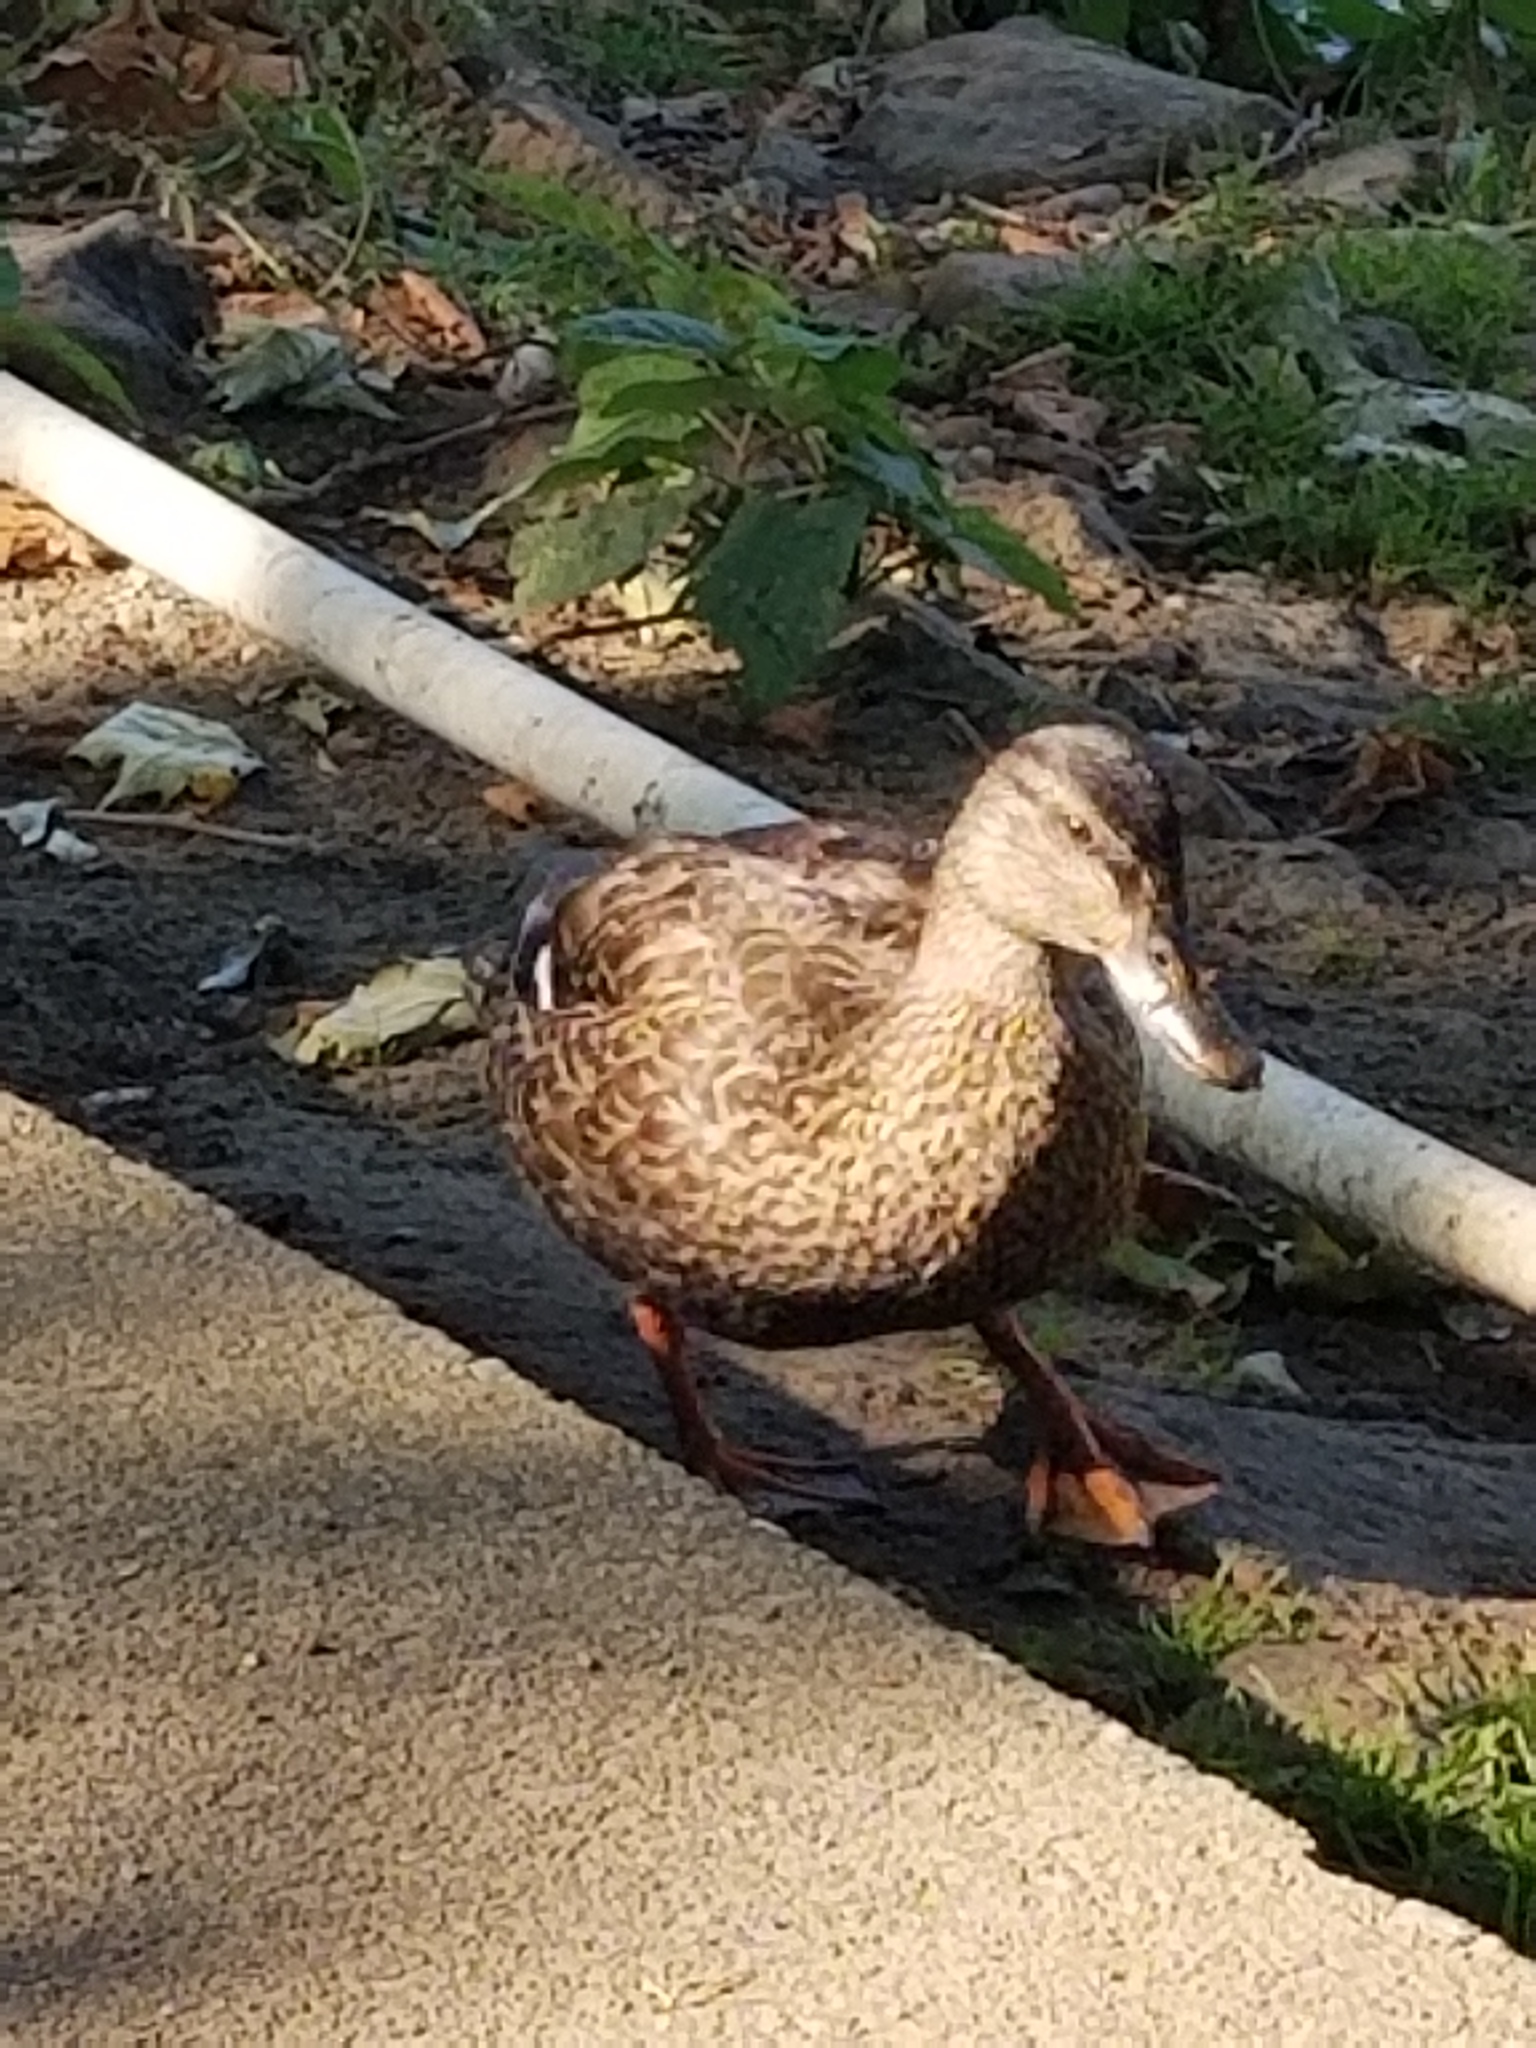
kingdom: Animalia
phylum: Chordata
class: Aves
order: Anseriformes
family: Anatidae
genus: Anas
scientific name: Anas platyrhynchos
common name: Mallard
